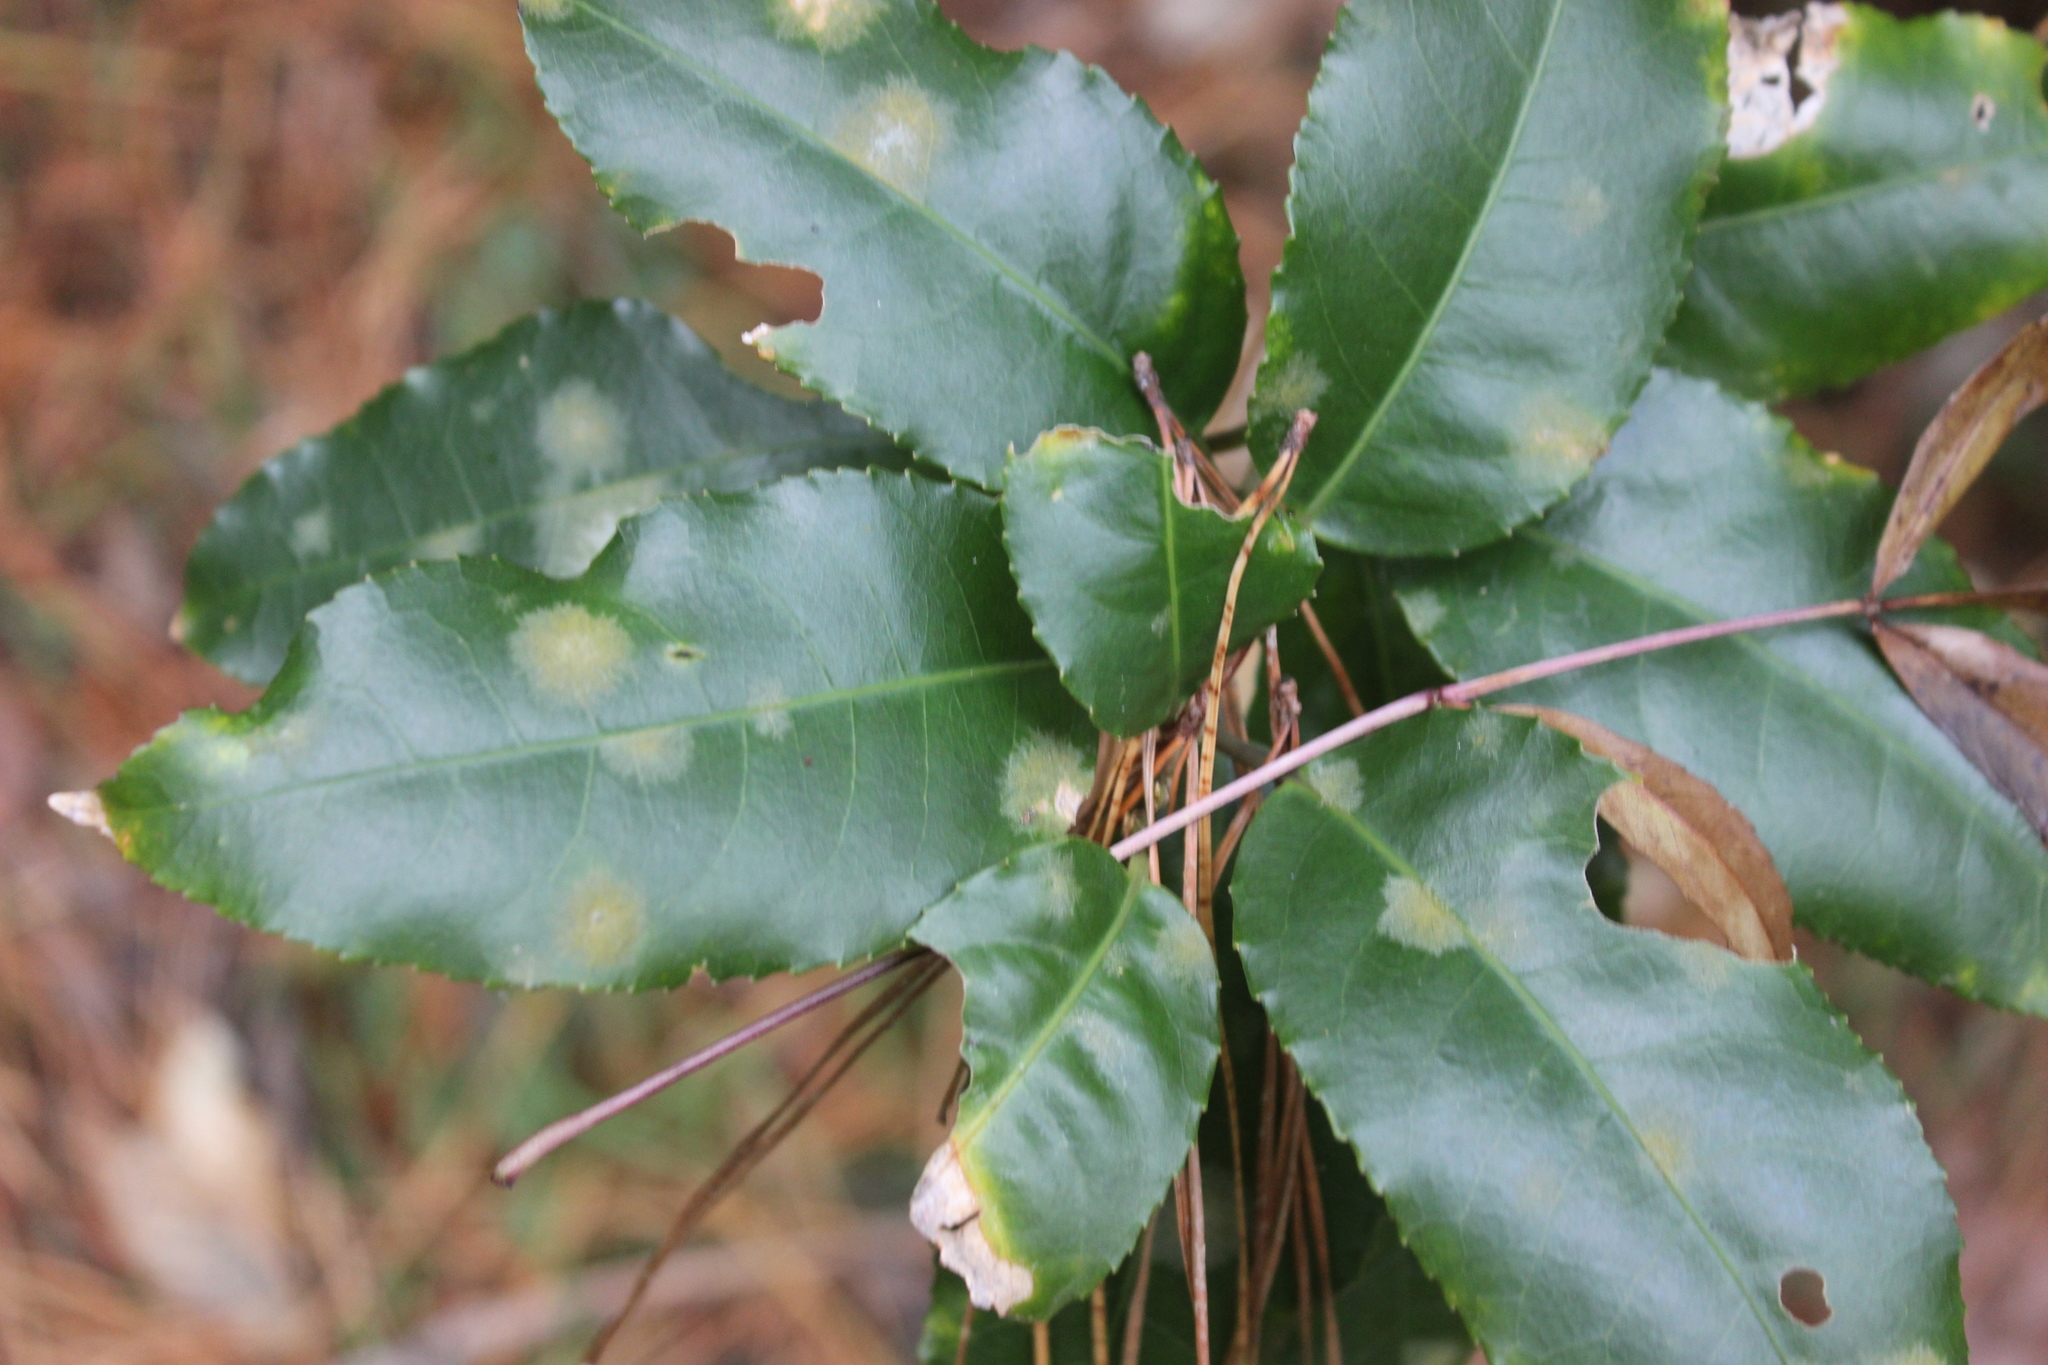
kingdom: Plantae
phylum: Tracheophyta
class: Magnoliopsida
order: Malpighiales
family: Violaceae
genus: Melicytus
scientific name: Melicytus ramiflorus
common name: Mahoe
